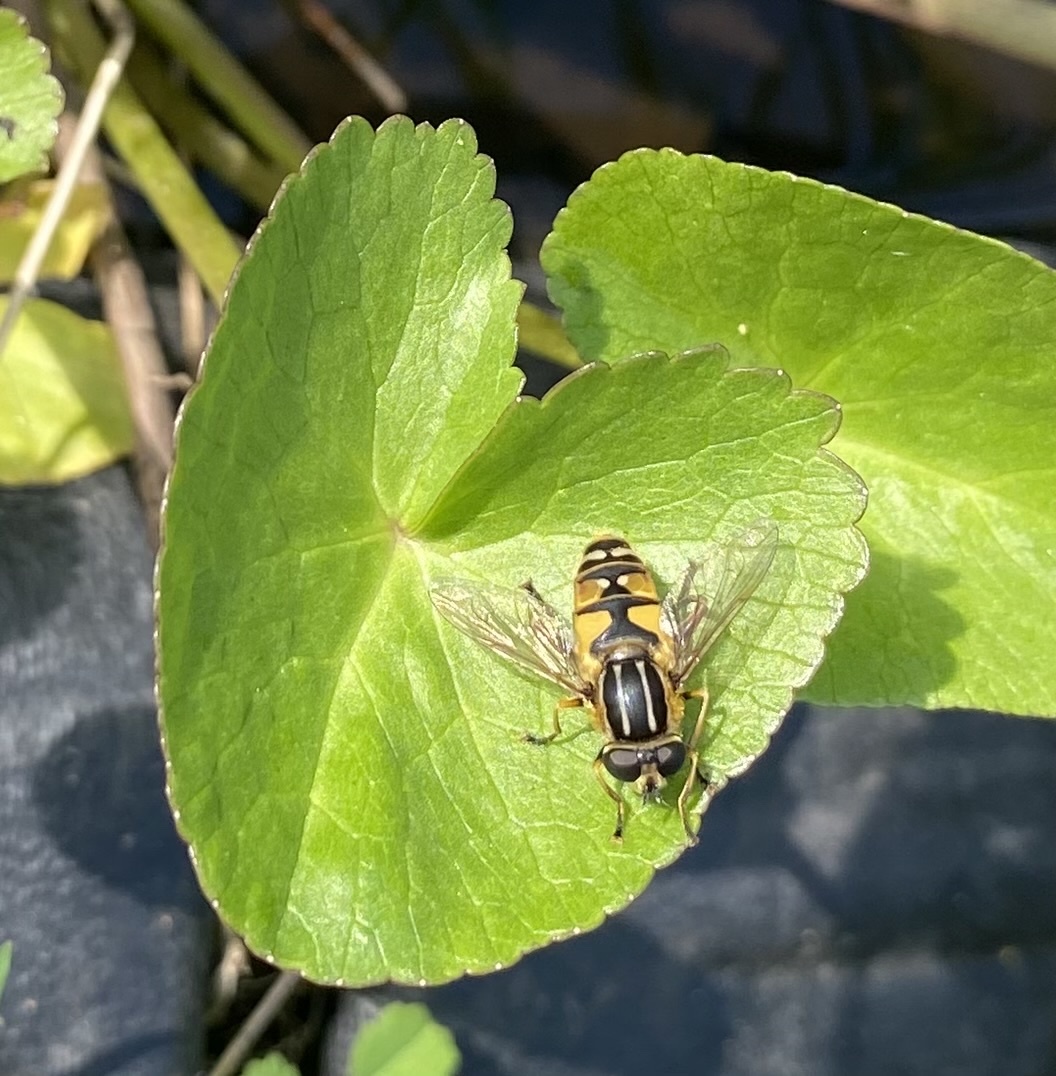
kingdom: Animalia
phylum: Arthropoda
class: Insecta
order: Diptera
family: Syrphidae
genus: Helophilus
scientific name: Helophilus pendulus
